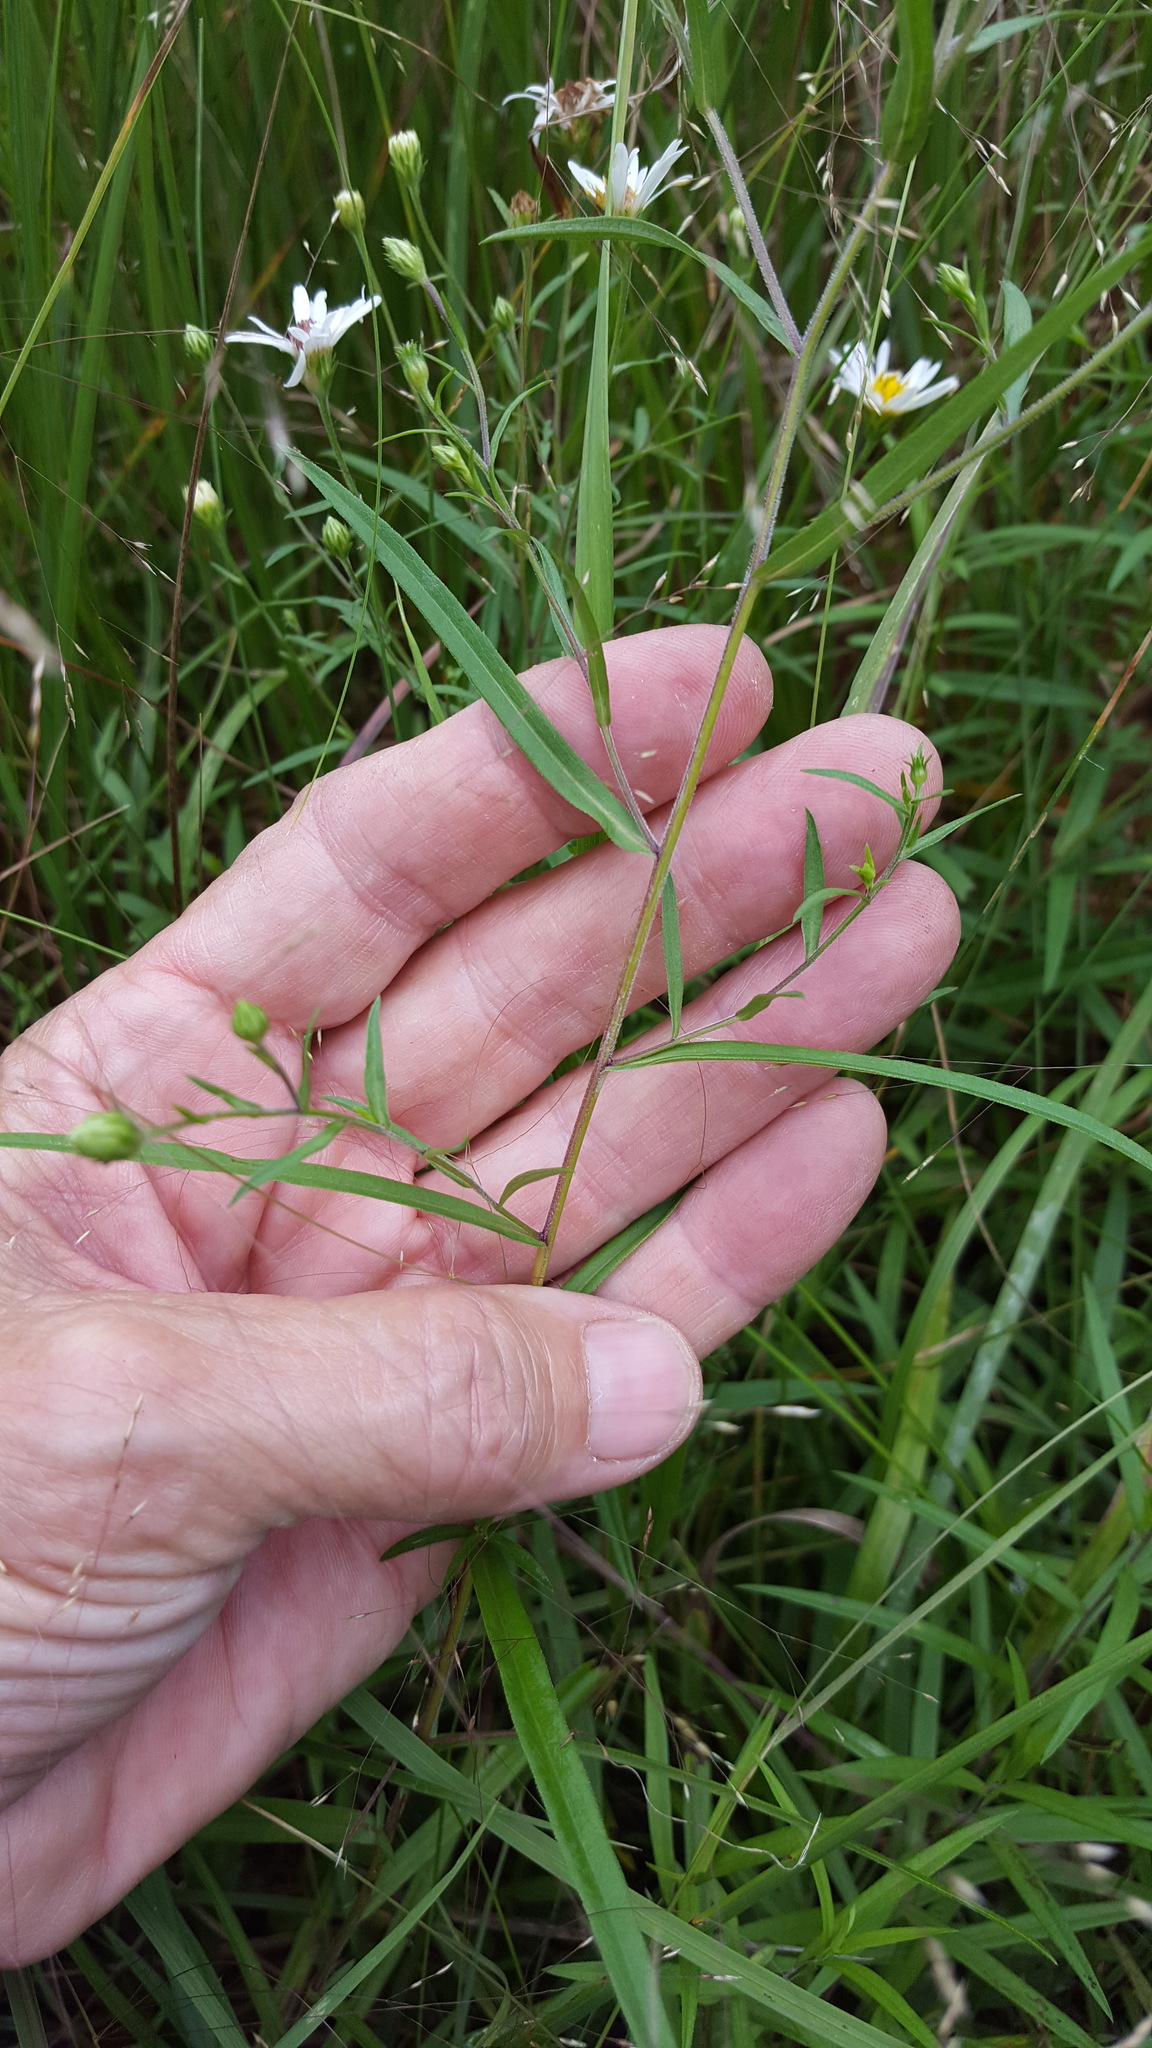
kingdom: Plantae
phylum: Tracheophyta
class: Magnoliopsida
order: Asterales
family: Asteraceae
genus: Symphyotrichum
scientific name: Symphyotrichum boreale
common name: Northern bog aster
